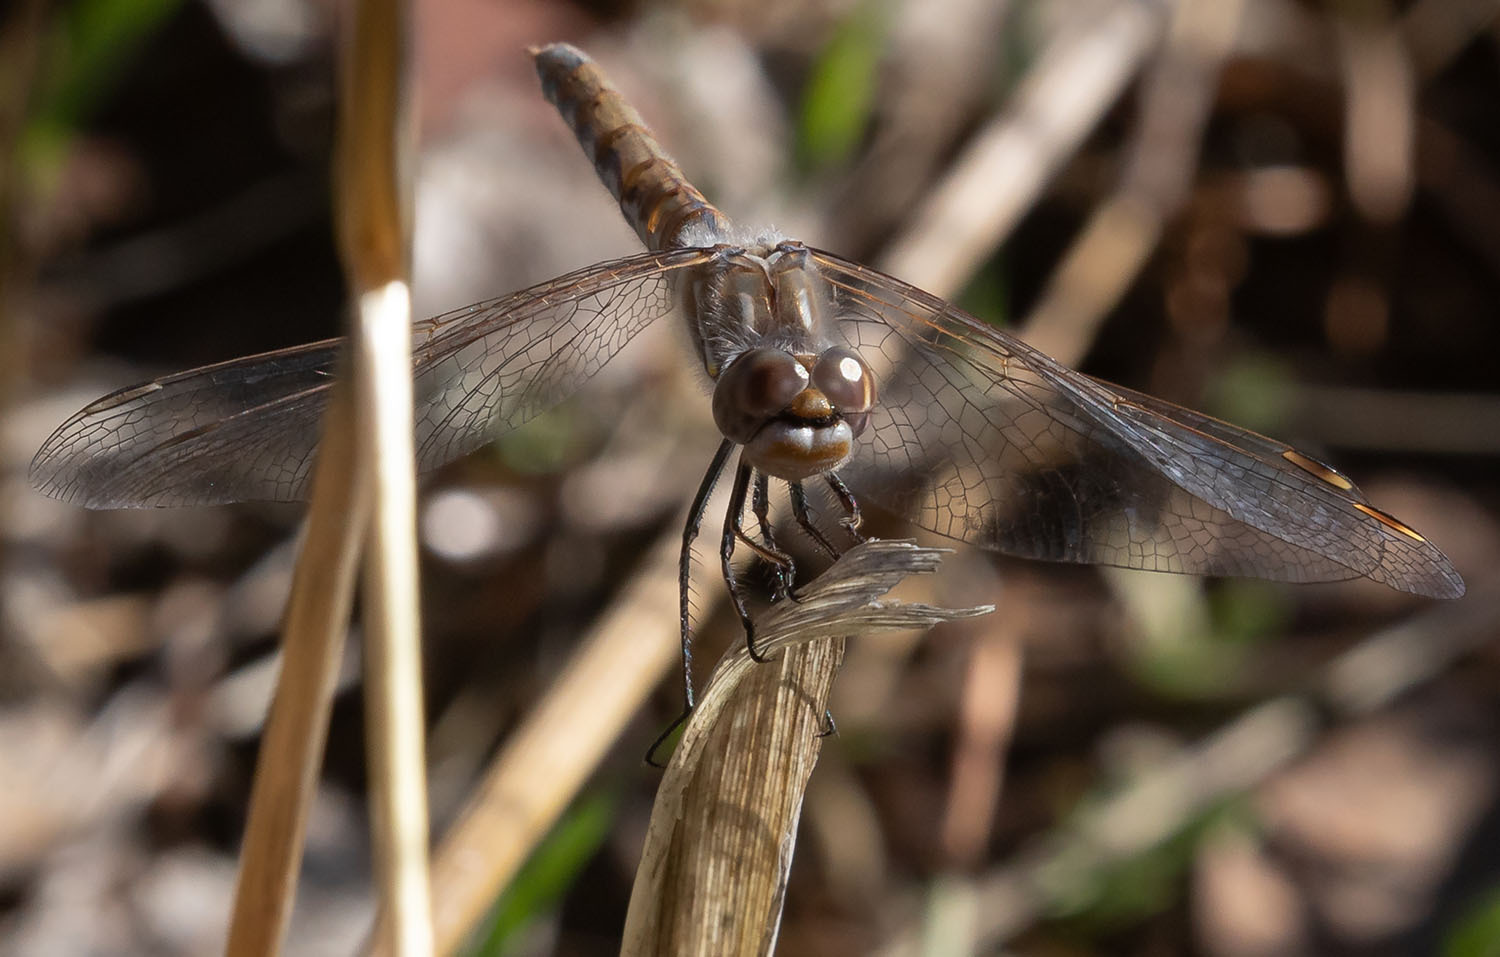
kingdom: Animalia
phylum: Arthropoda
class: Insecta
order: Odonata
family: Libellulidae
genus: Sympetrum
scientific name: Sympetrum corruptum
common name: Variegated meadowhawk
